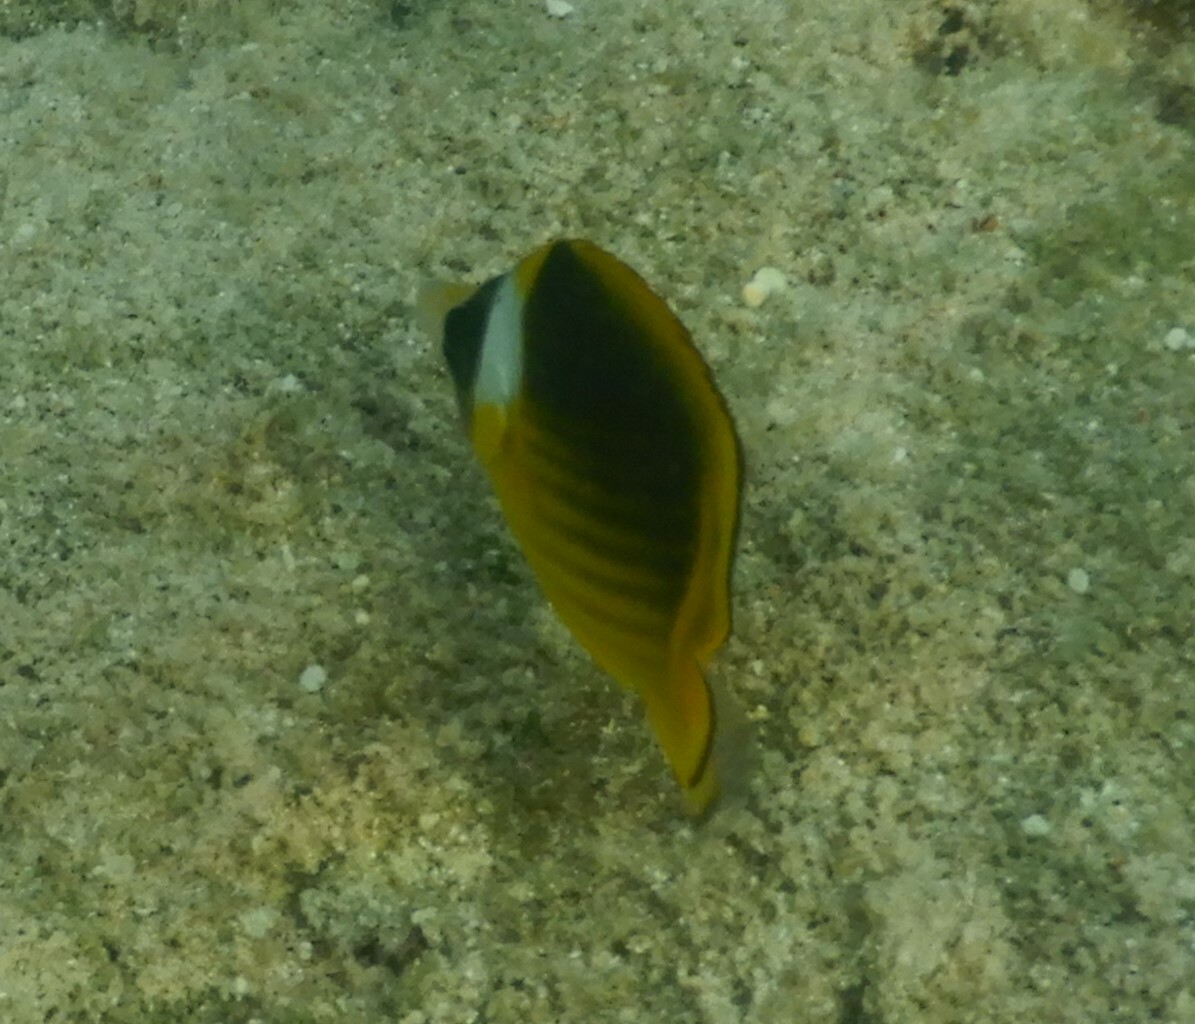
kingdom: Animalia
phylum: Chordata
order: Perciformes
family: Chaetodontidae
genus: Chaetodon
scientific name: Chaetodon fasciatus
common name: Diagonal butterflyfish
